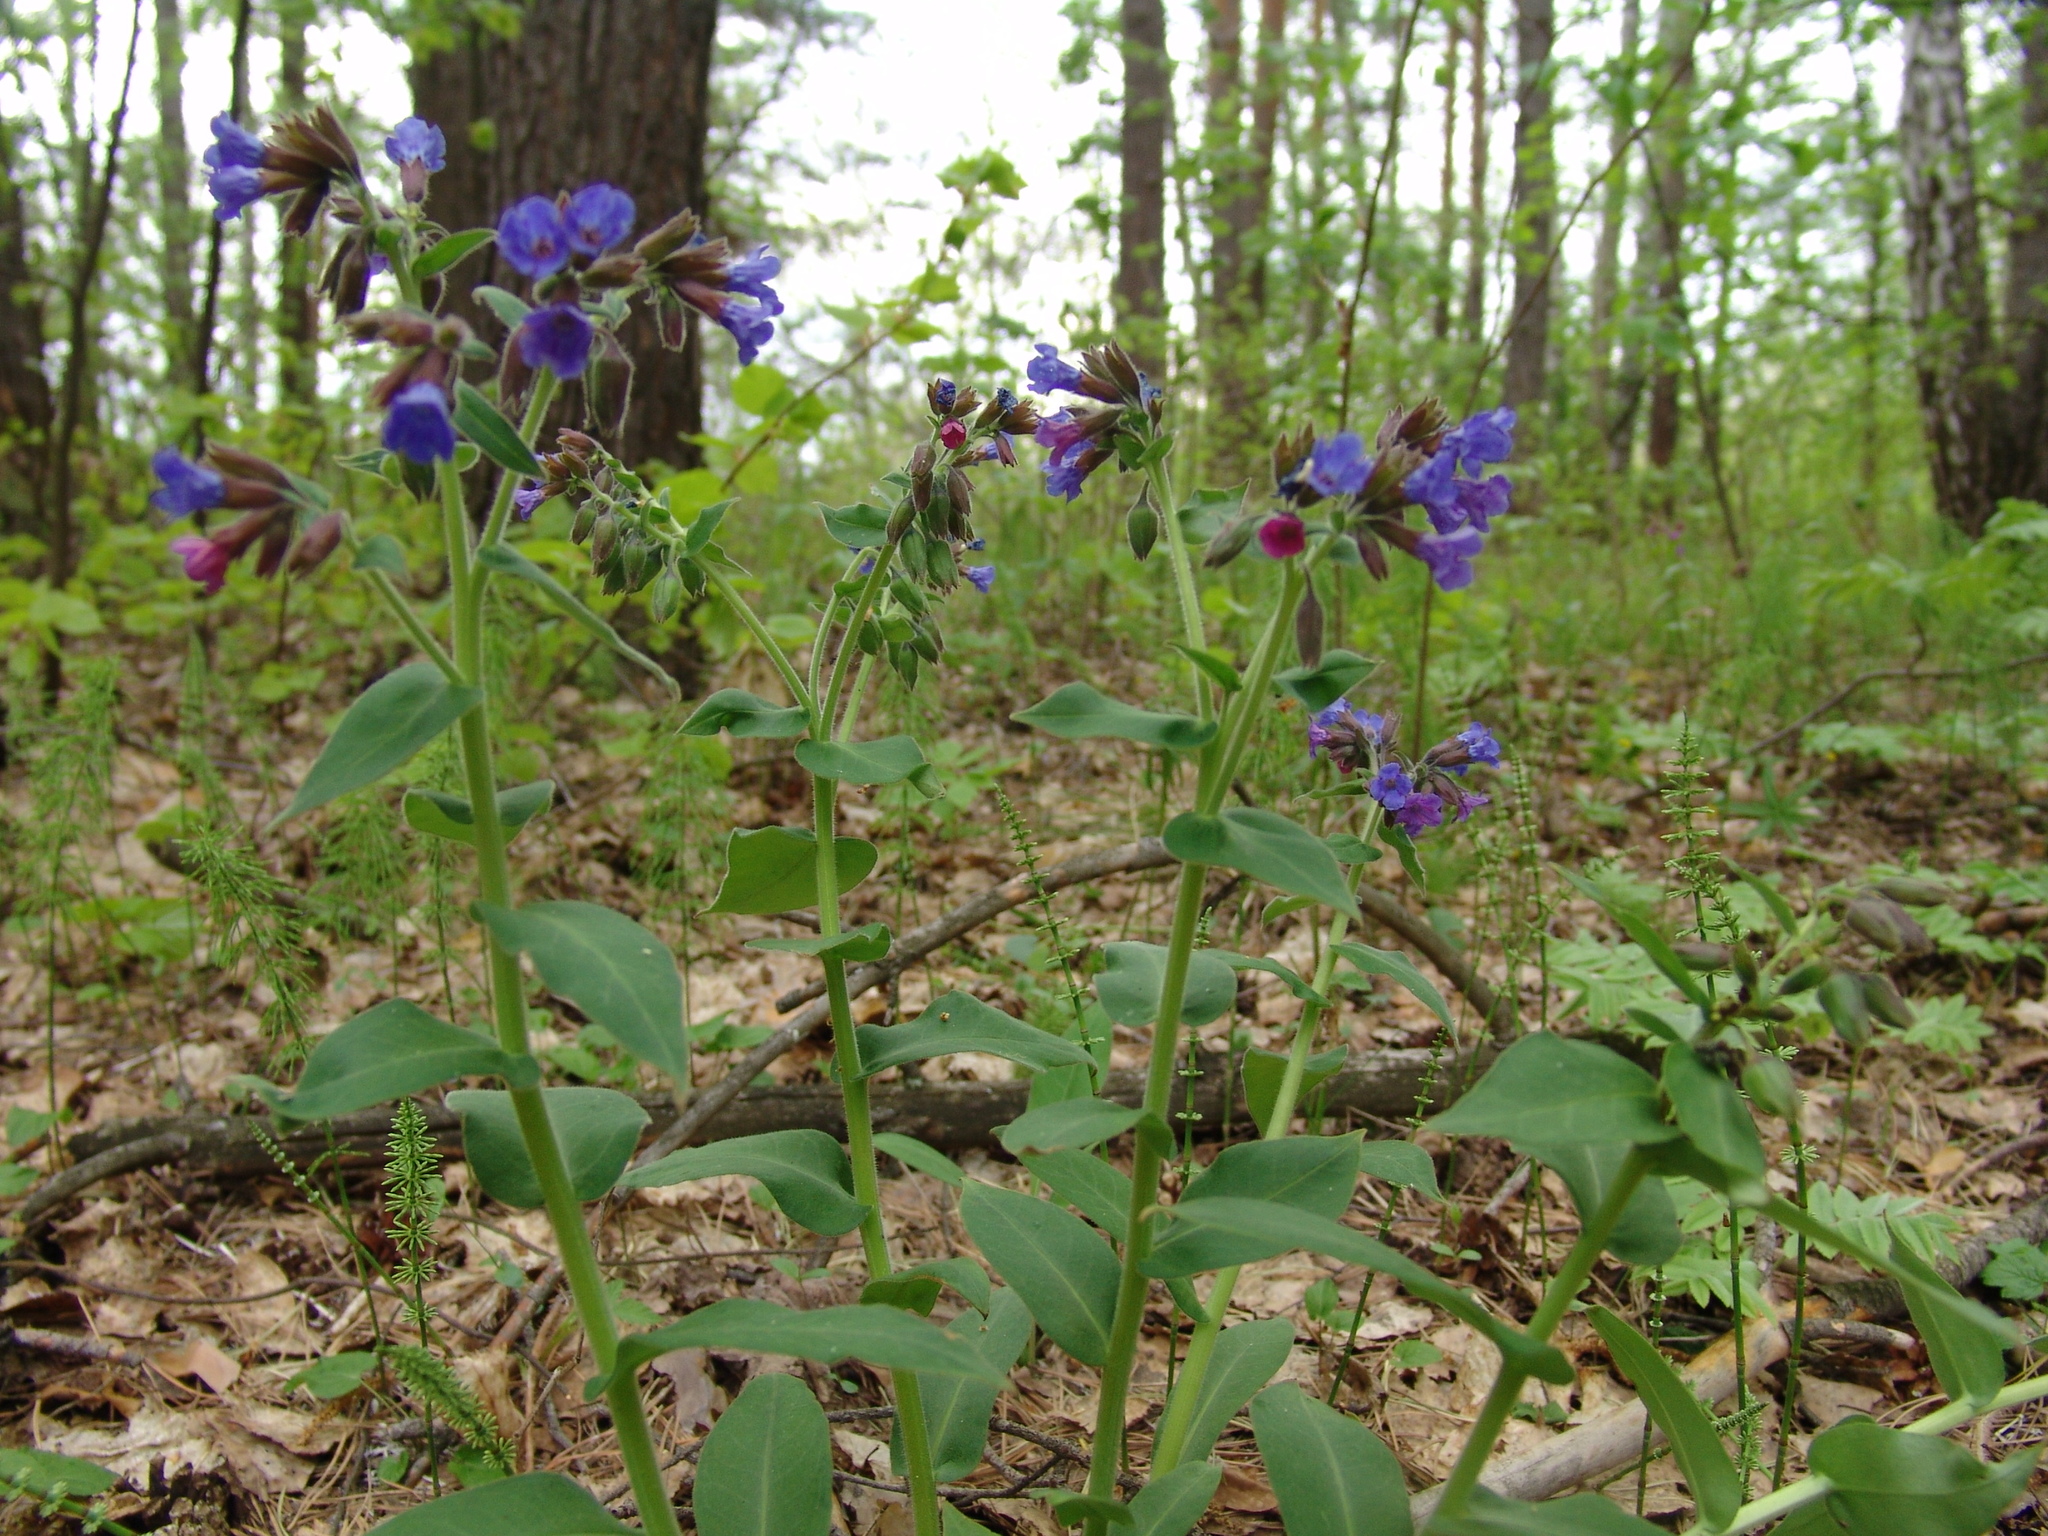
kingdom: Plantae
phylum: Tracheophyta
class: Magnoliopsida
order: Boraginales
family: Boraginaceae
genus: Pulmonaria
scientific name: Pulmonaria mollis
